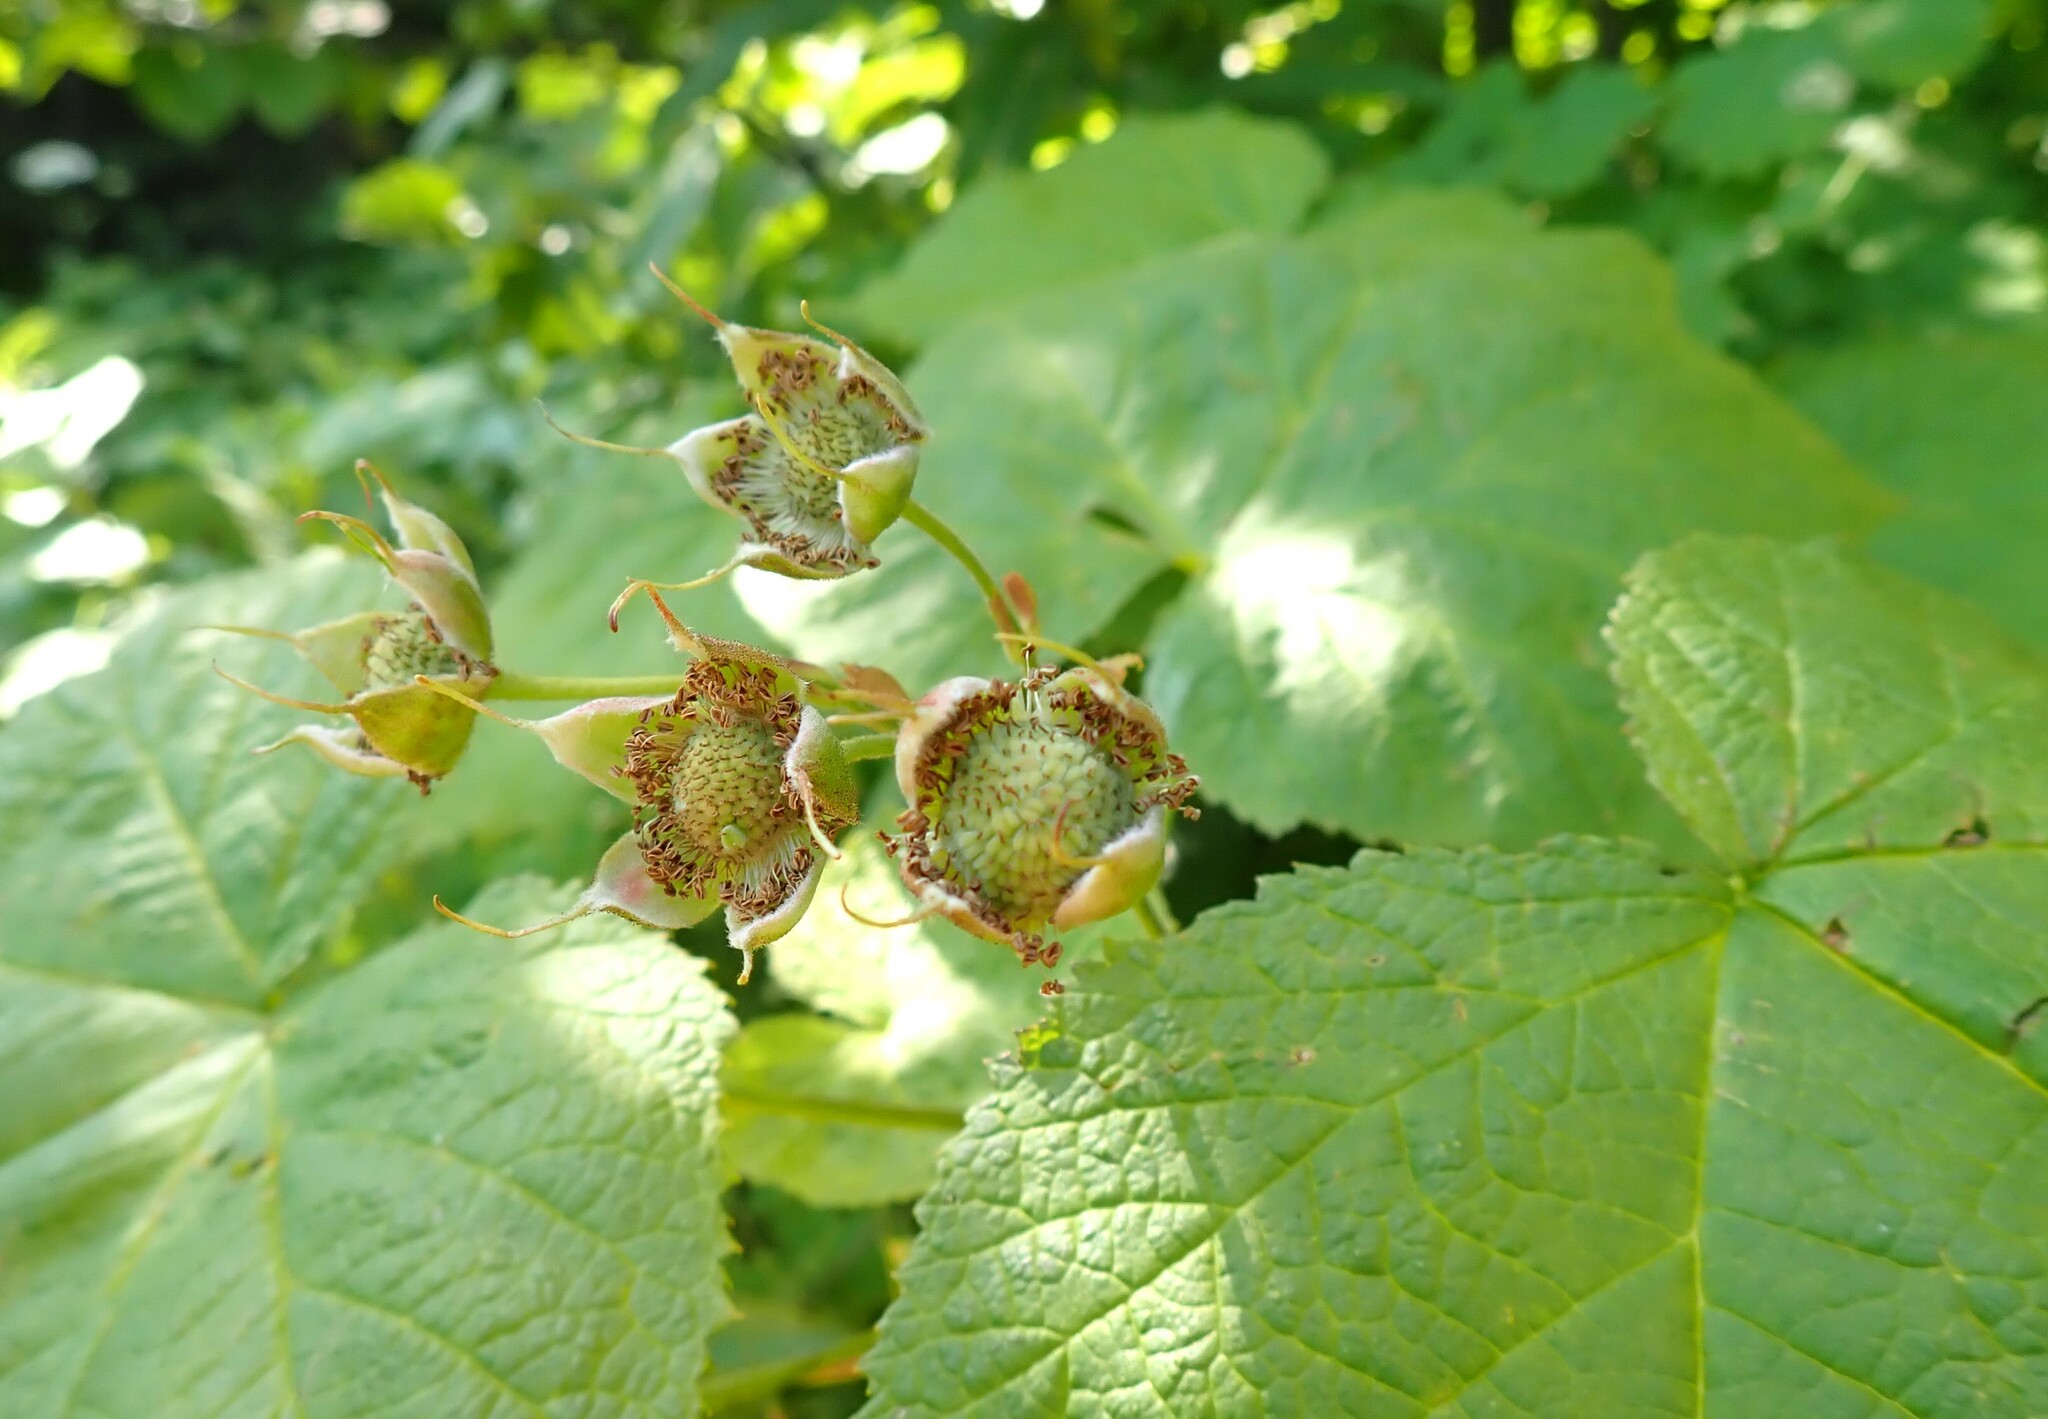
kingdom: Plantae
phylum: Tracheophyta
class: Magnoliopsida
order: Rosales
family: Rosaceae
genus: Rubus
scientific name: Rubus parviflorus
